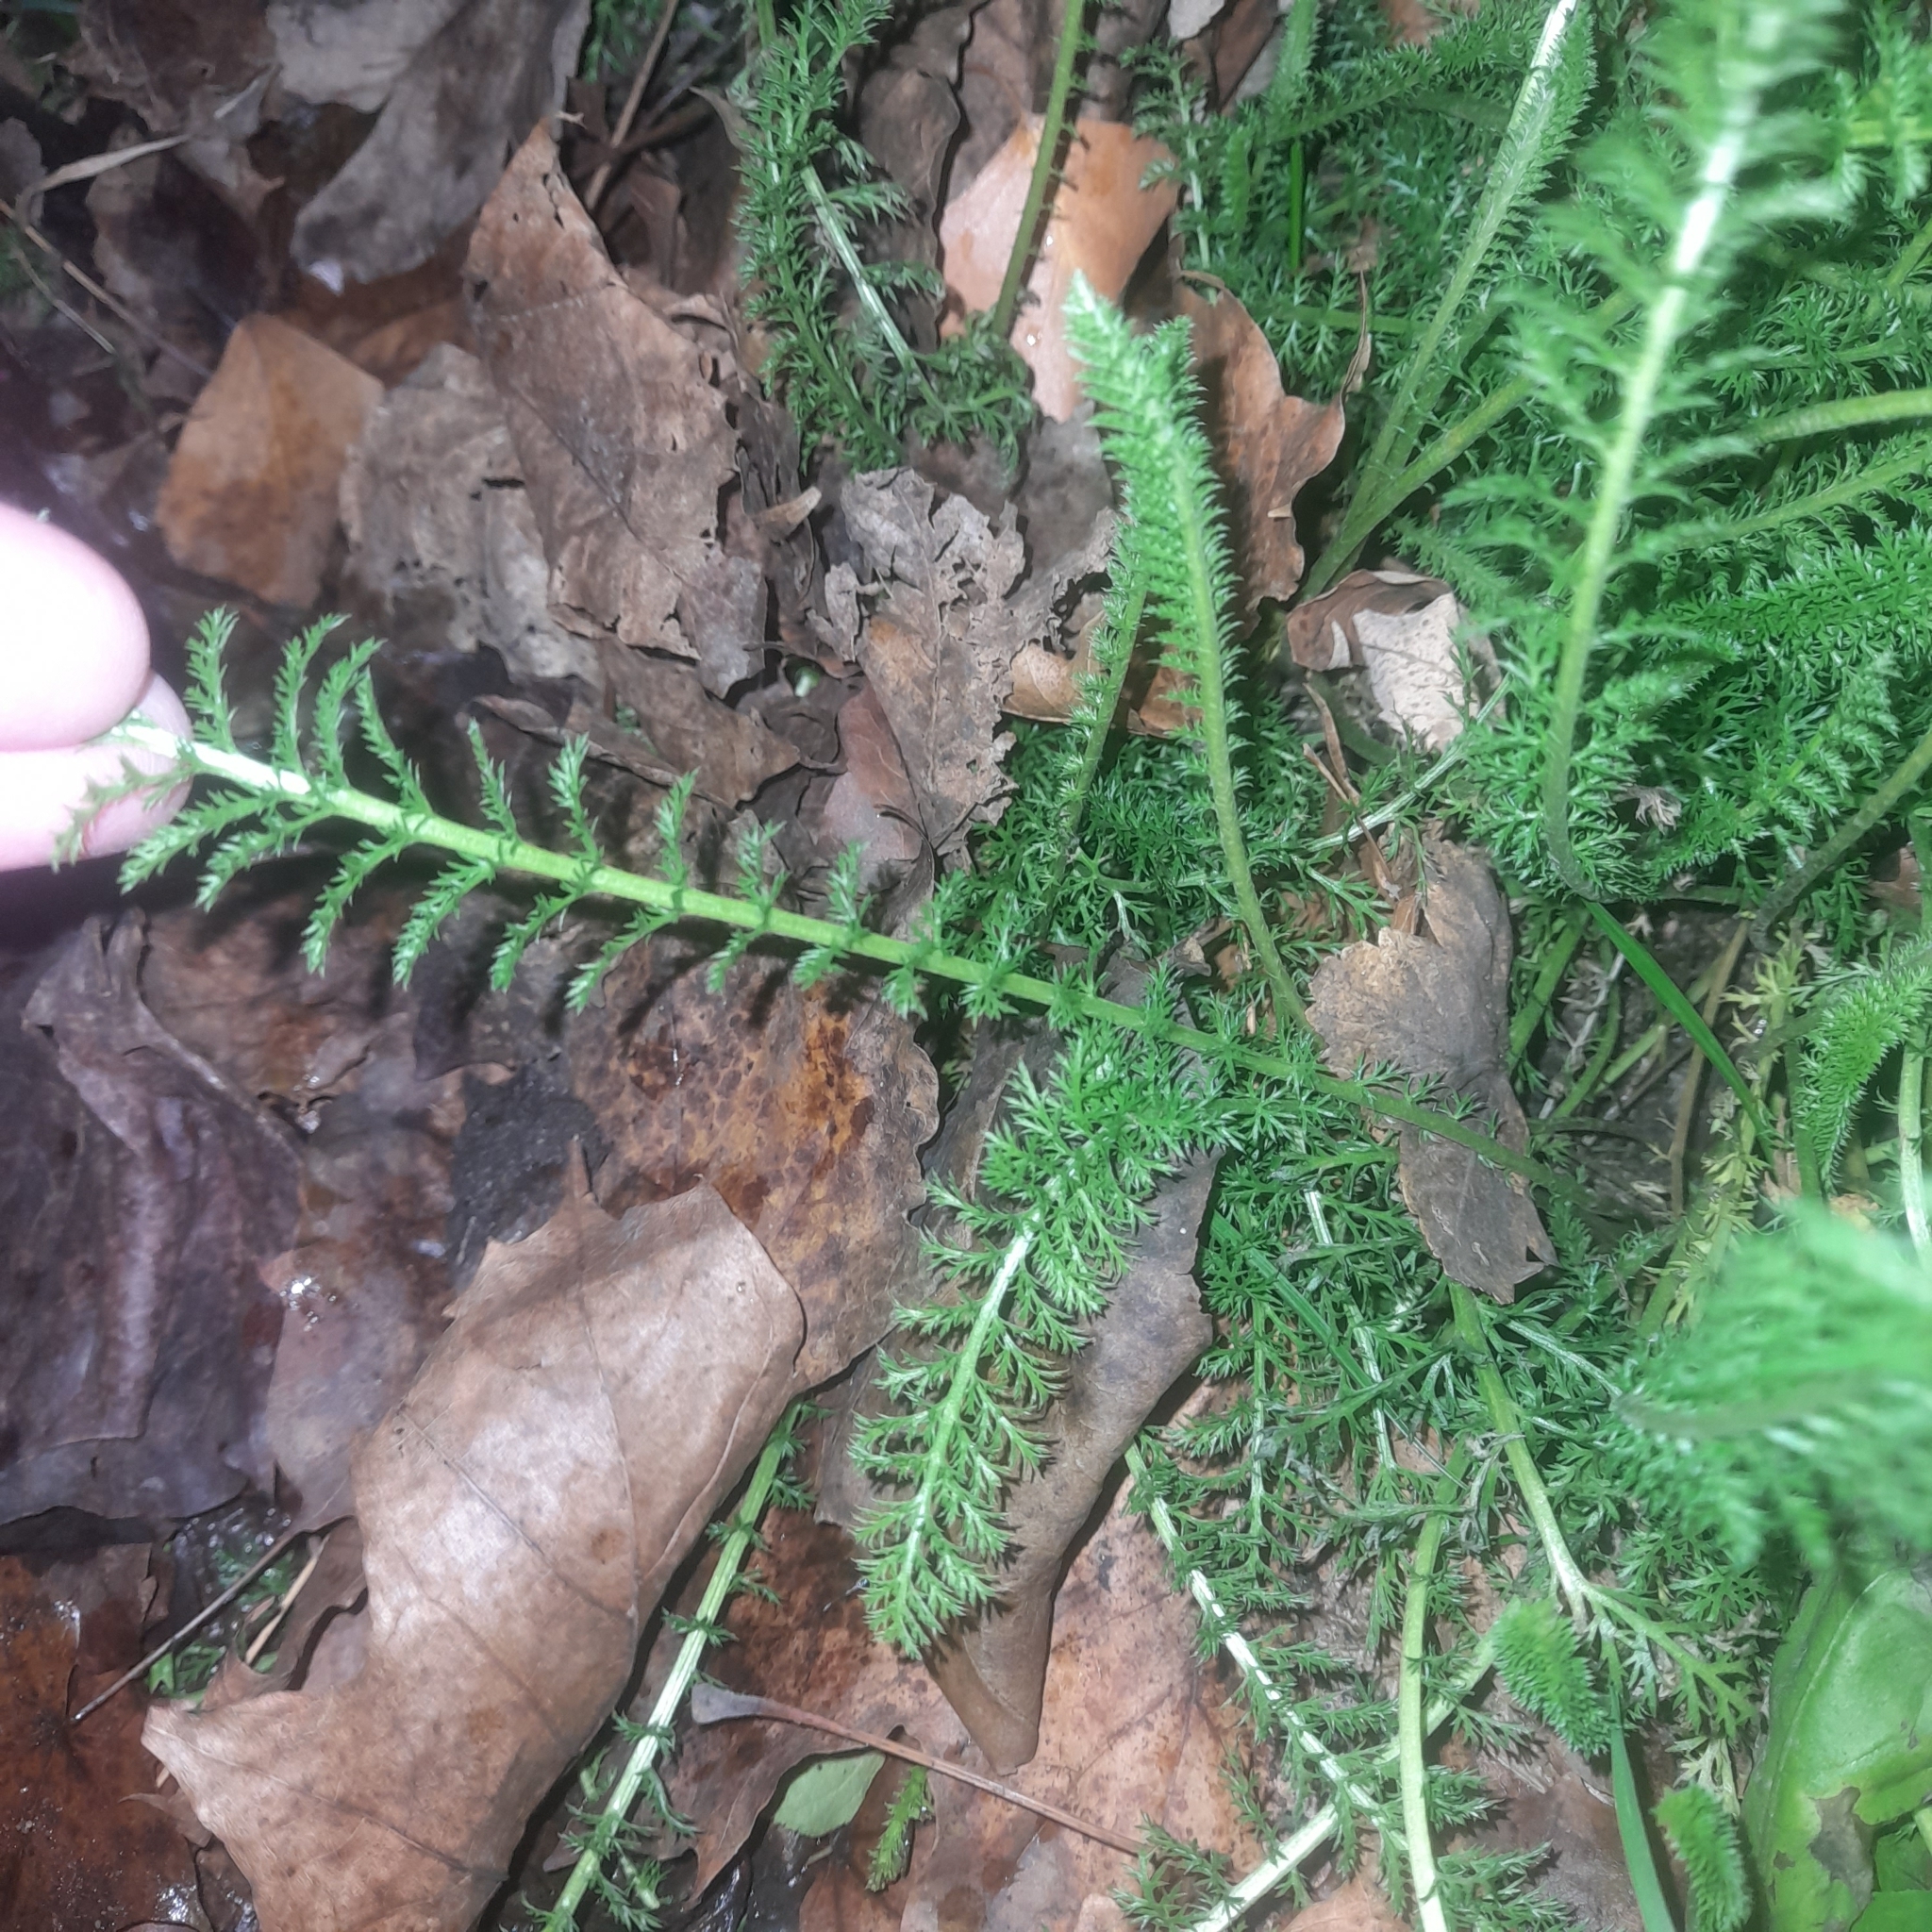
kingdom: Plantae
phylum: Tracheophyta
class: Magnoliopsida
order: Asterales
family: Asteraceae
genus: Achillea
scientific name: Achillea millefolium
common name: Yarrow
